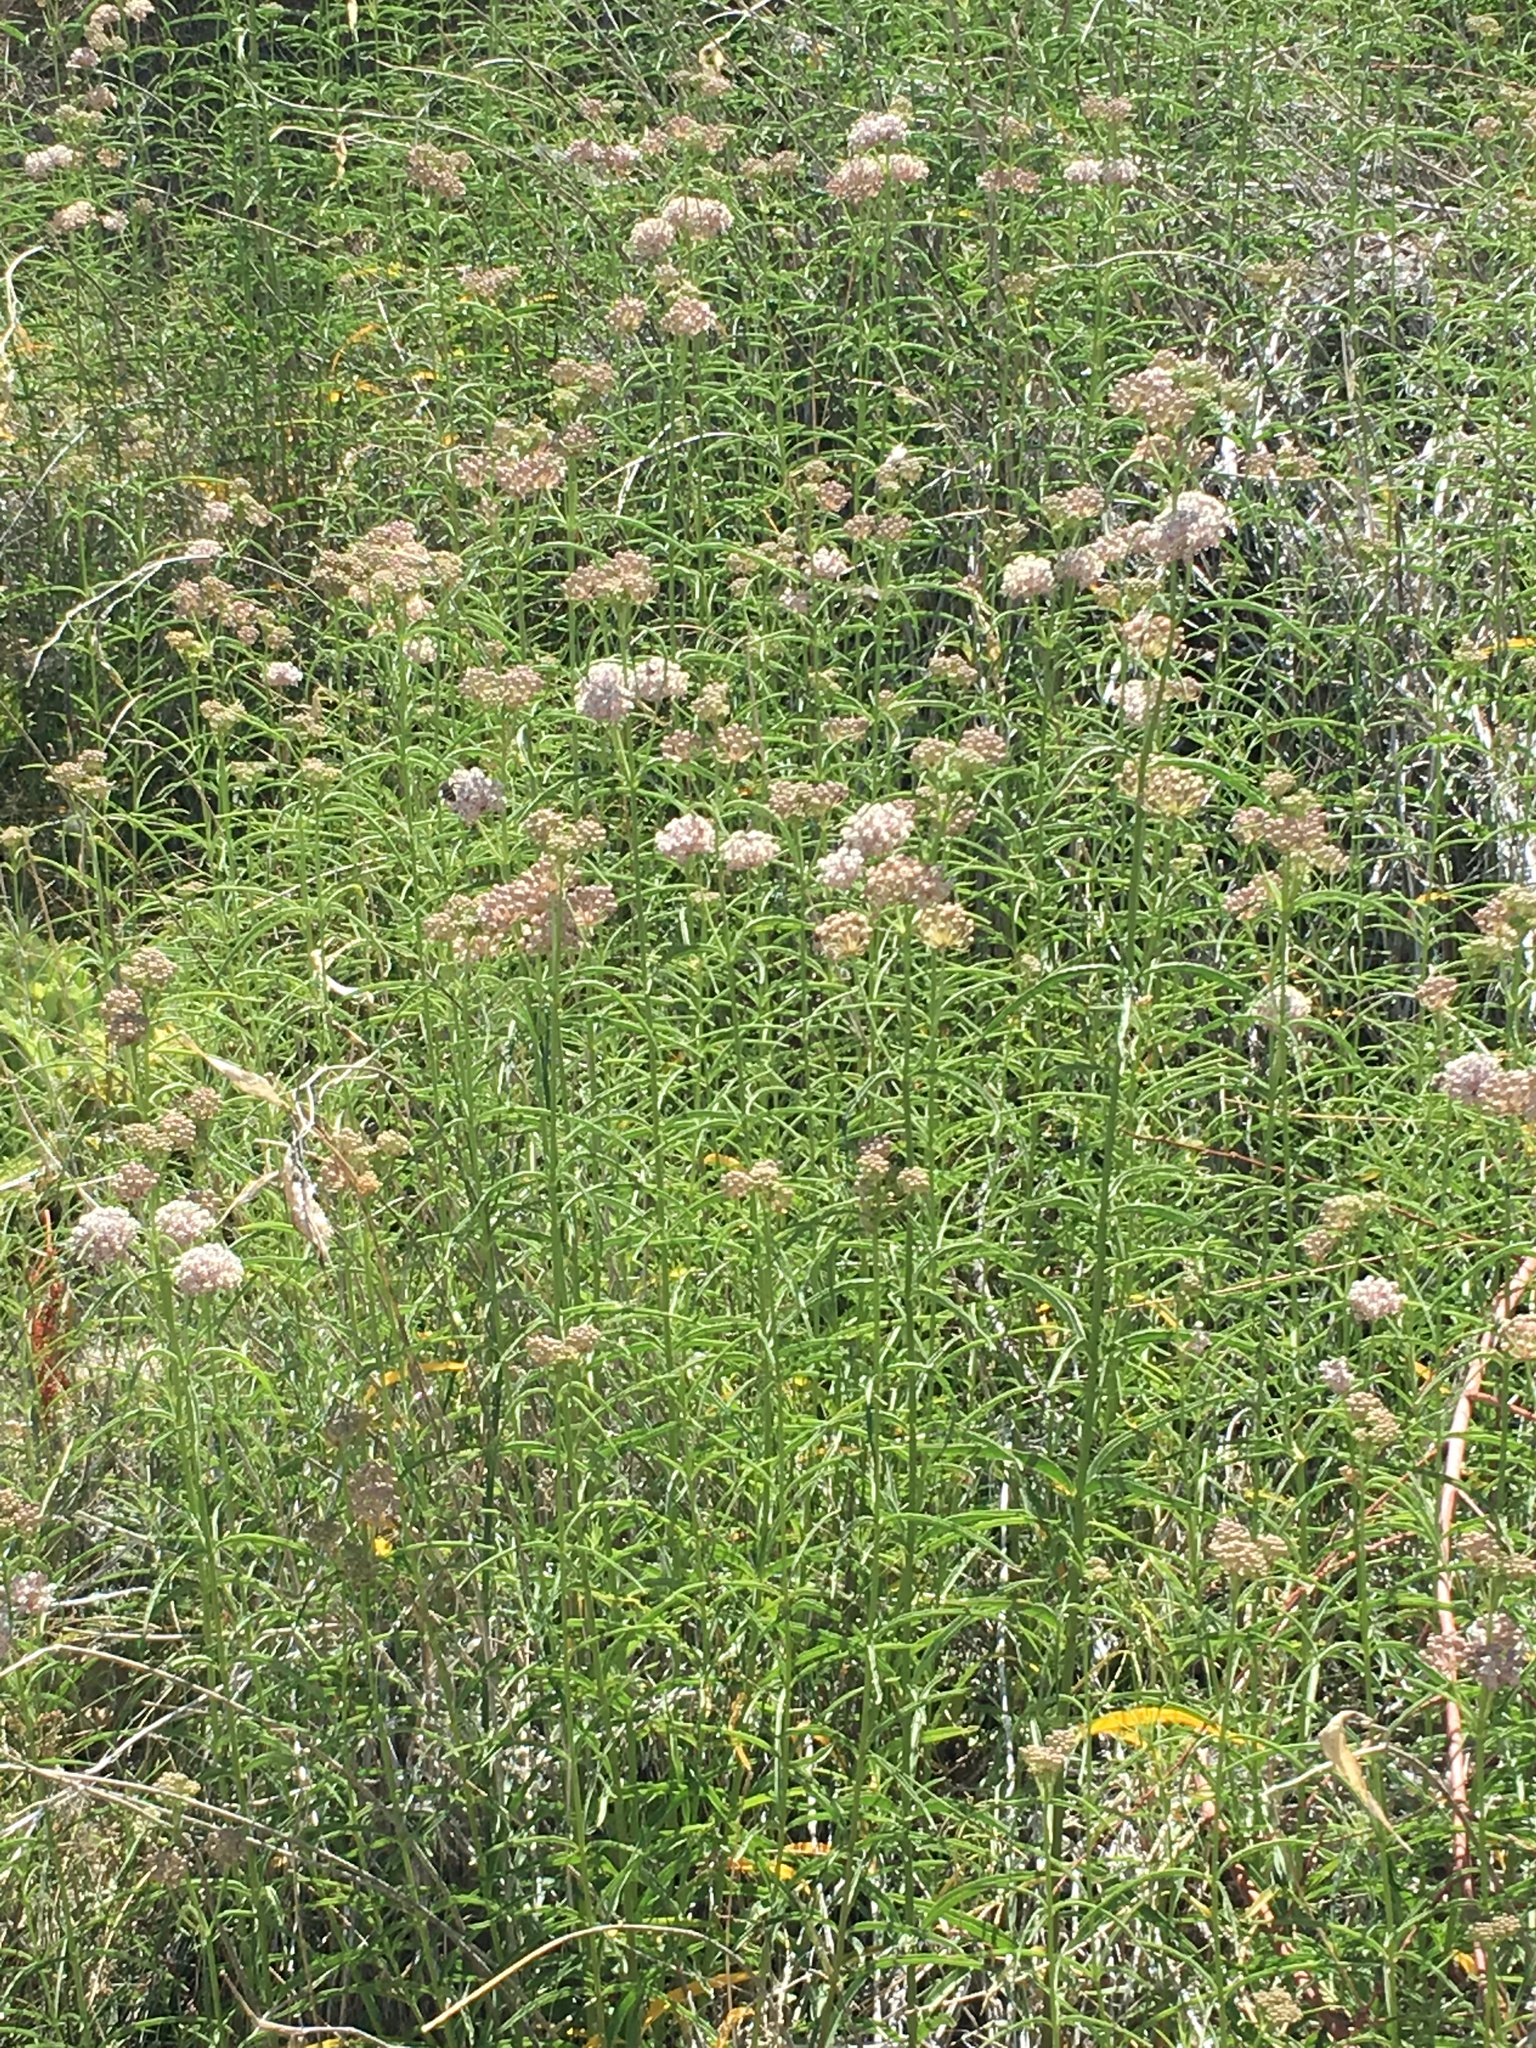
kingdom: Plantae
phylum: Tracheophyta
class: Magnoliopsida
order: Gentianales
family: Apocynaceae
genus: Asclepias
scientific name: Asclepias fascicularis
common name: Mexican milkweed
